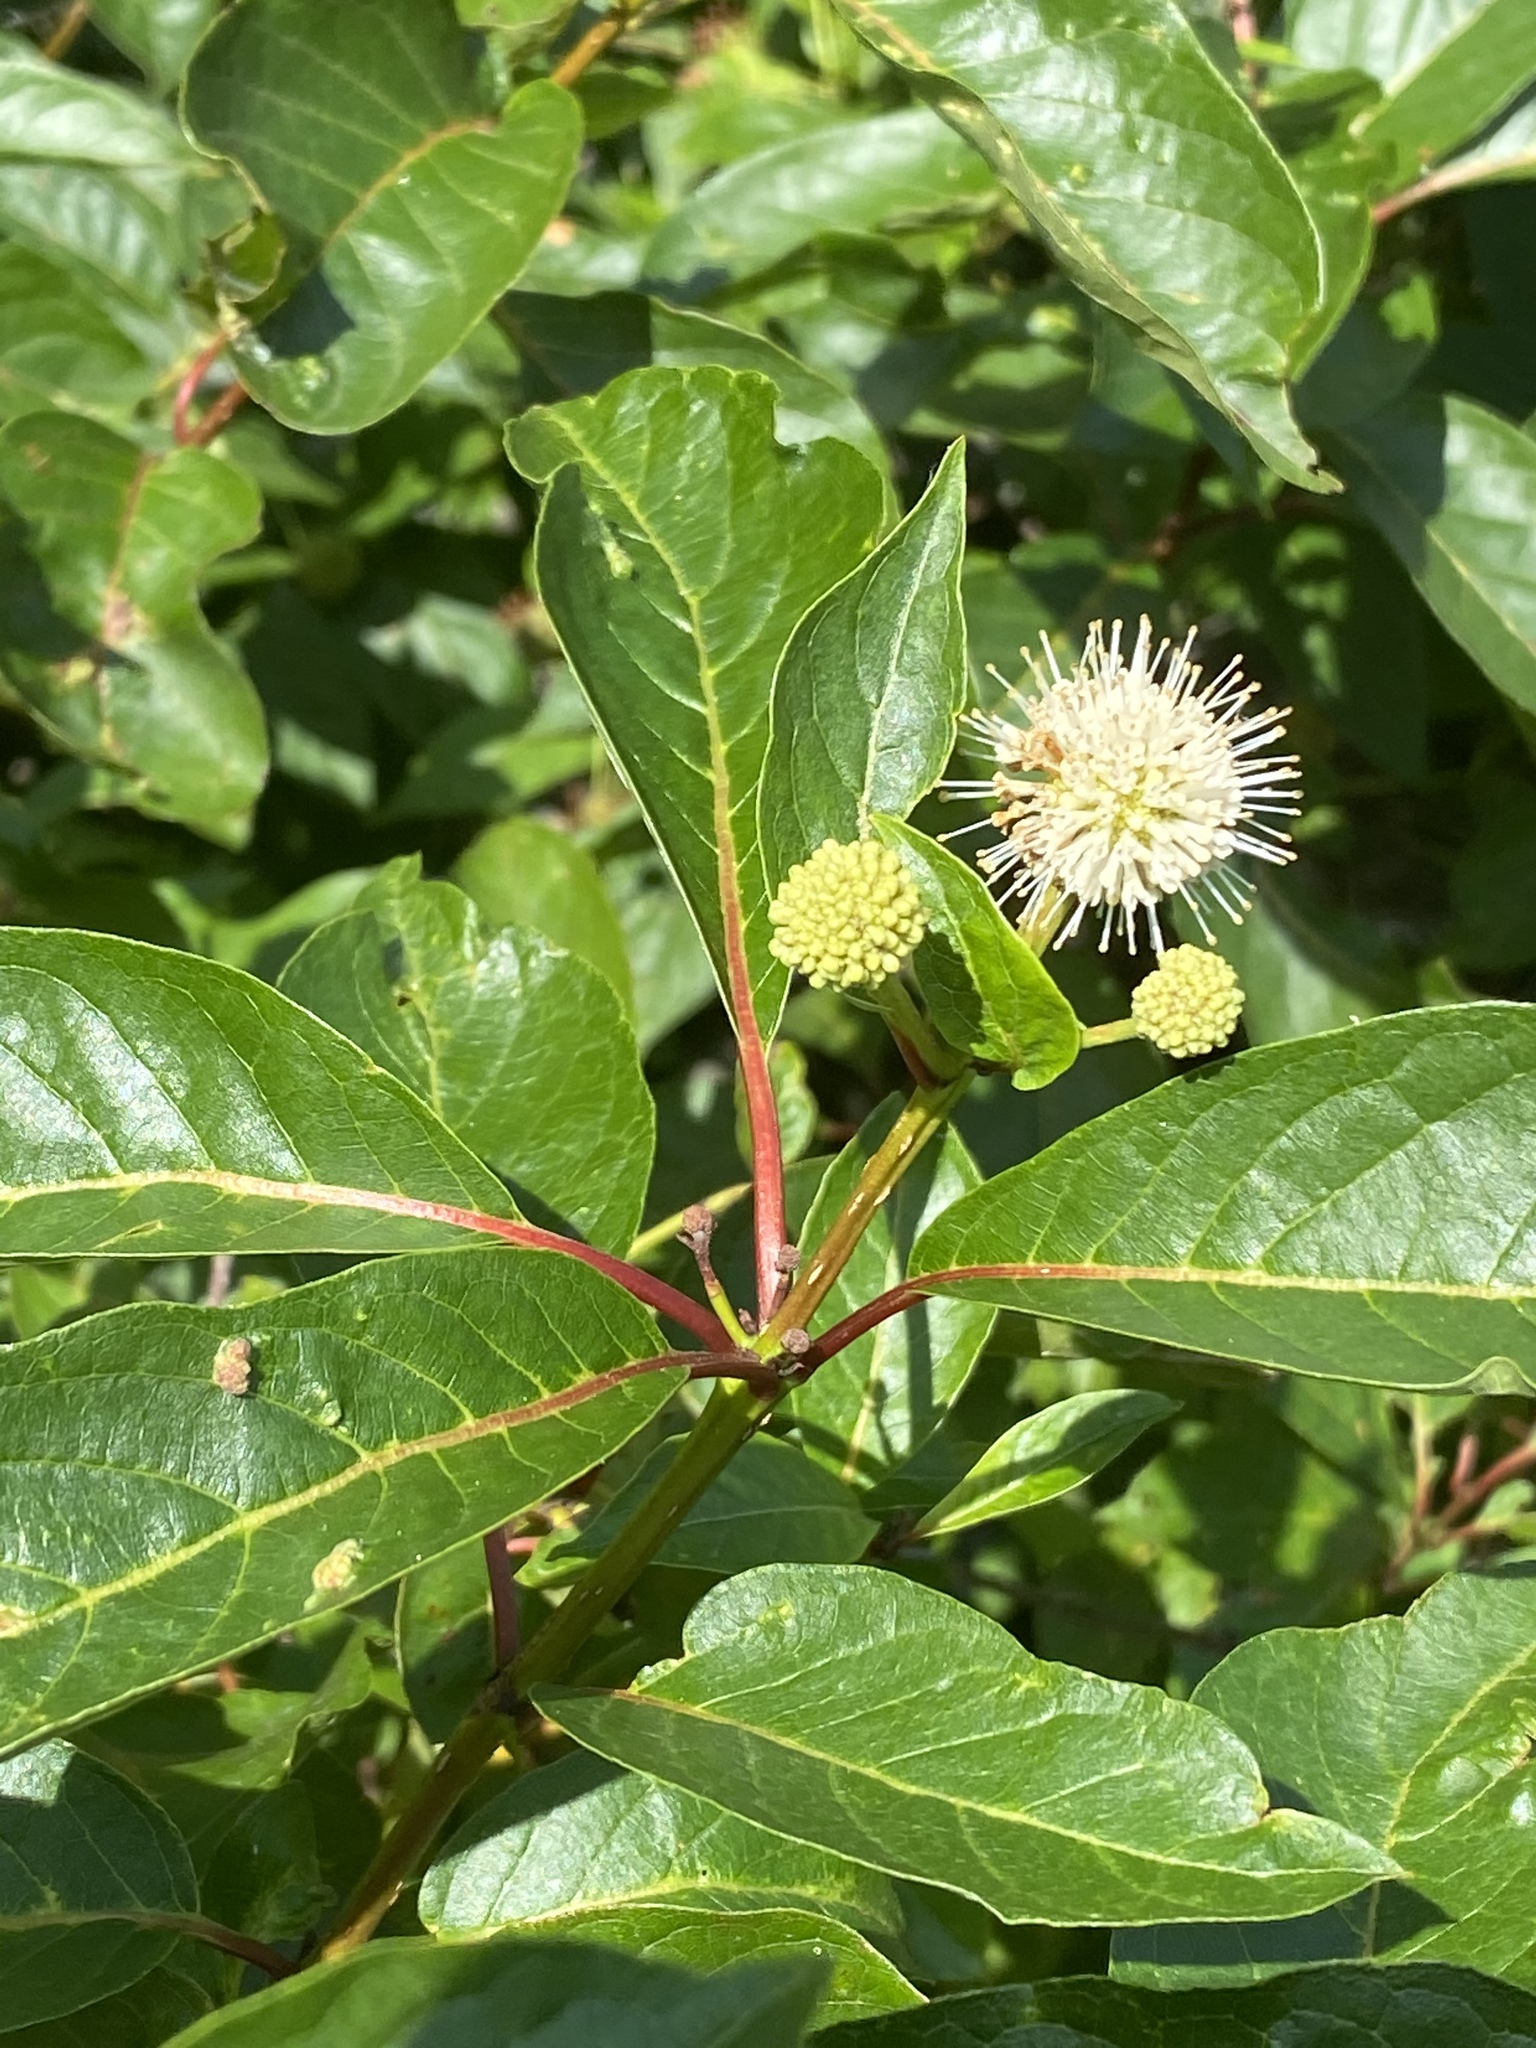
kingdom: Plantae
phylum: Tracheophyta
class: Magnoliopsida
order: Gentianales
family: Rubiaceae
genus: Cephalanthus
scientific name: Cephalanthus occidentalis
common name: Button-willow
